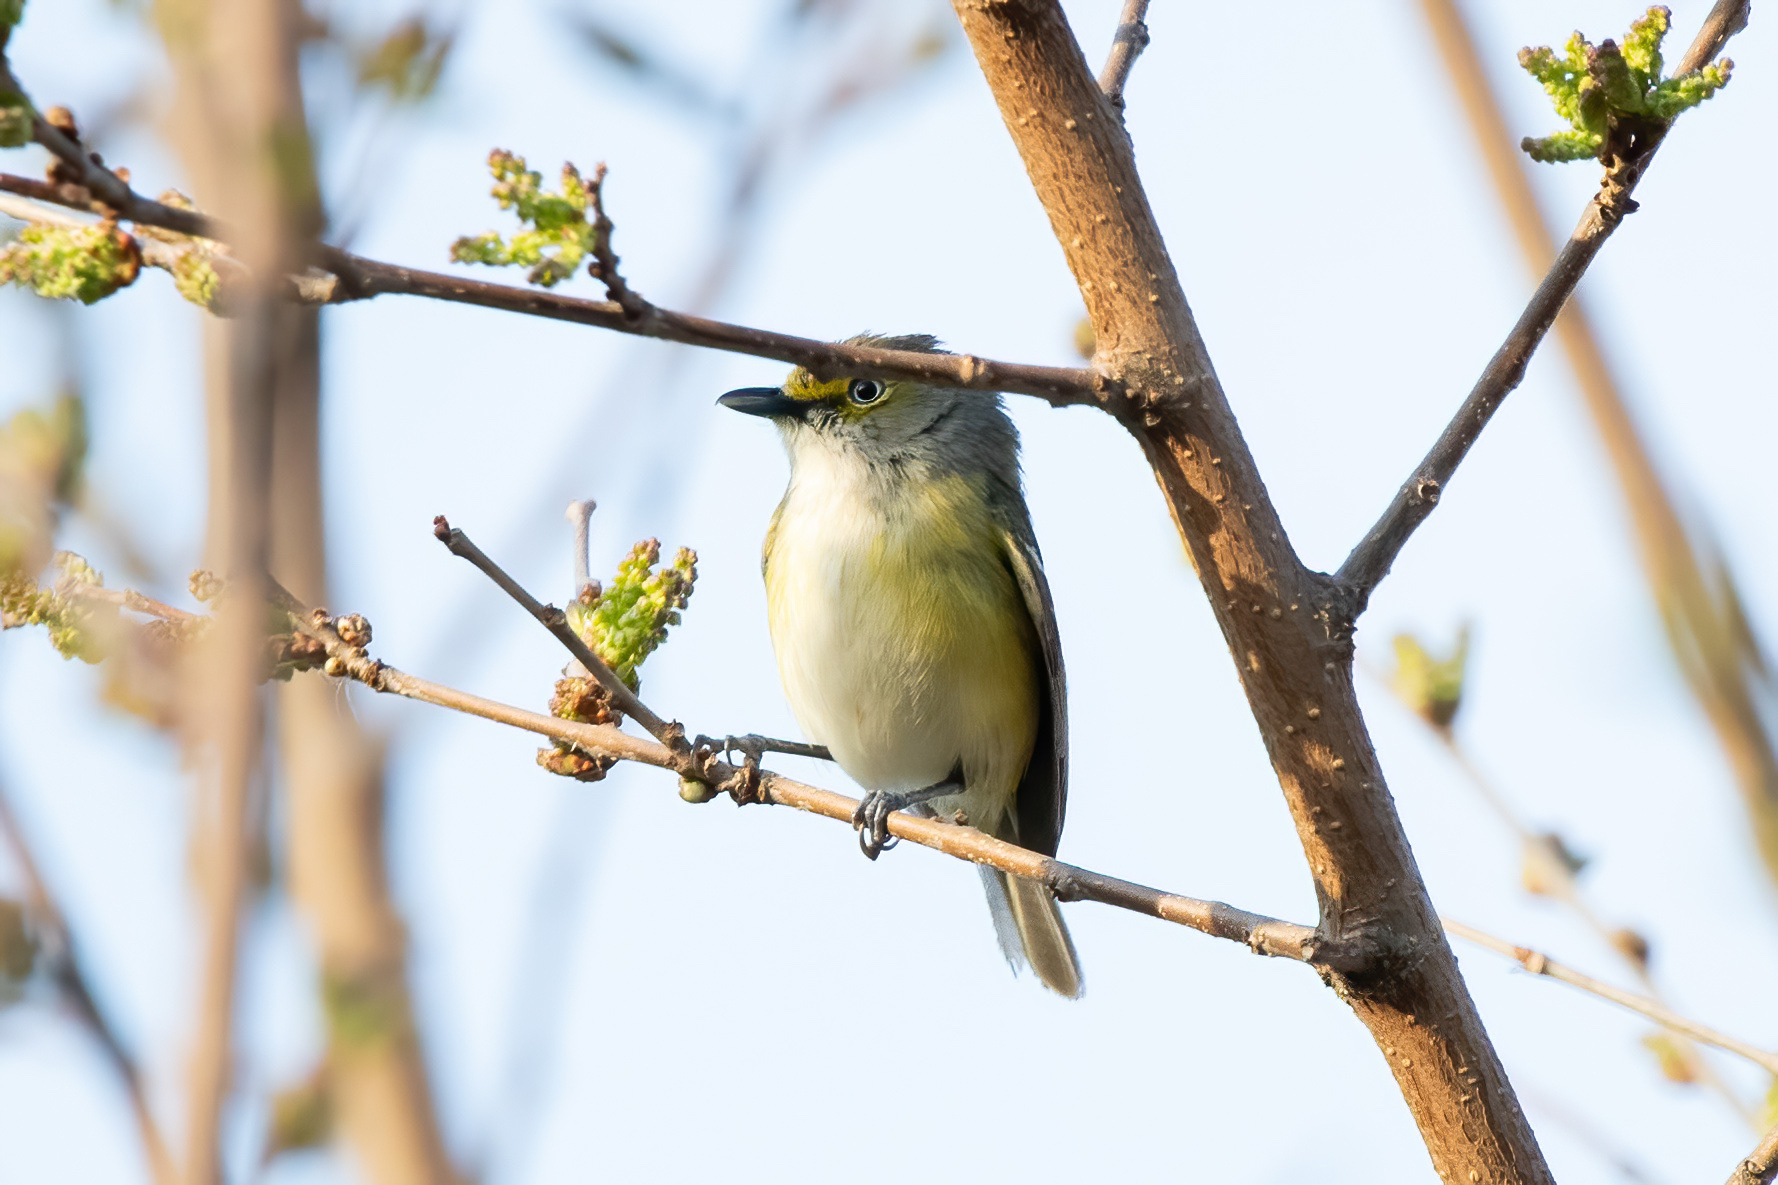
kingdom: Animalia
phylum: Chordata
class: Aves
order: Passeriformes
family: Vireonidae
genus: Vireo
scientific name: Vireo griseus
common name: White-eyed vireo
